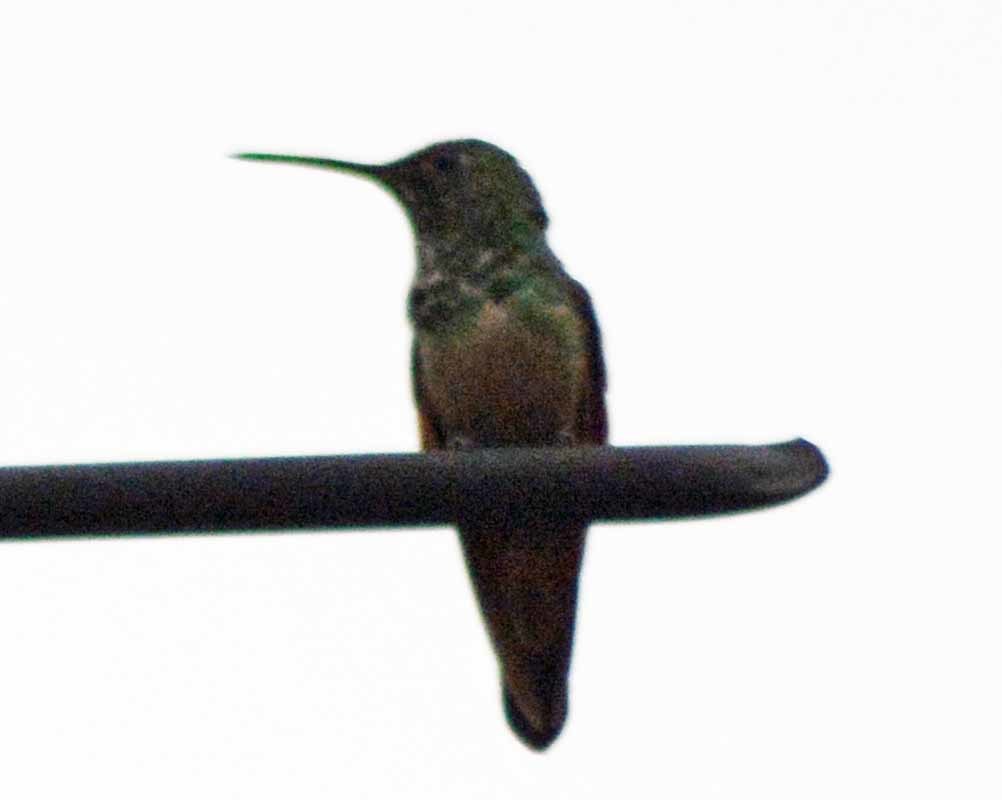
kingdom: Animalia
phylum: Chordata
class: Aves
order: Apodiformes
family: Trochilidae
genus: Saucerottia
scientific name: Saucerottia beryllina
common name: Berylline hummingbird
